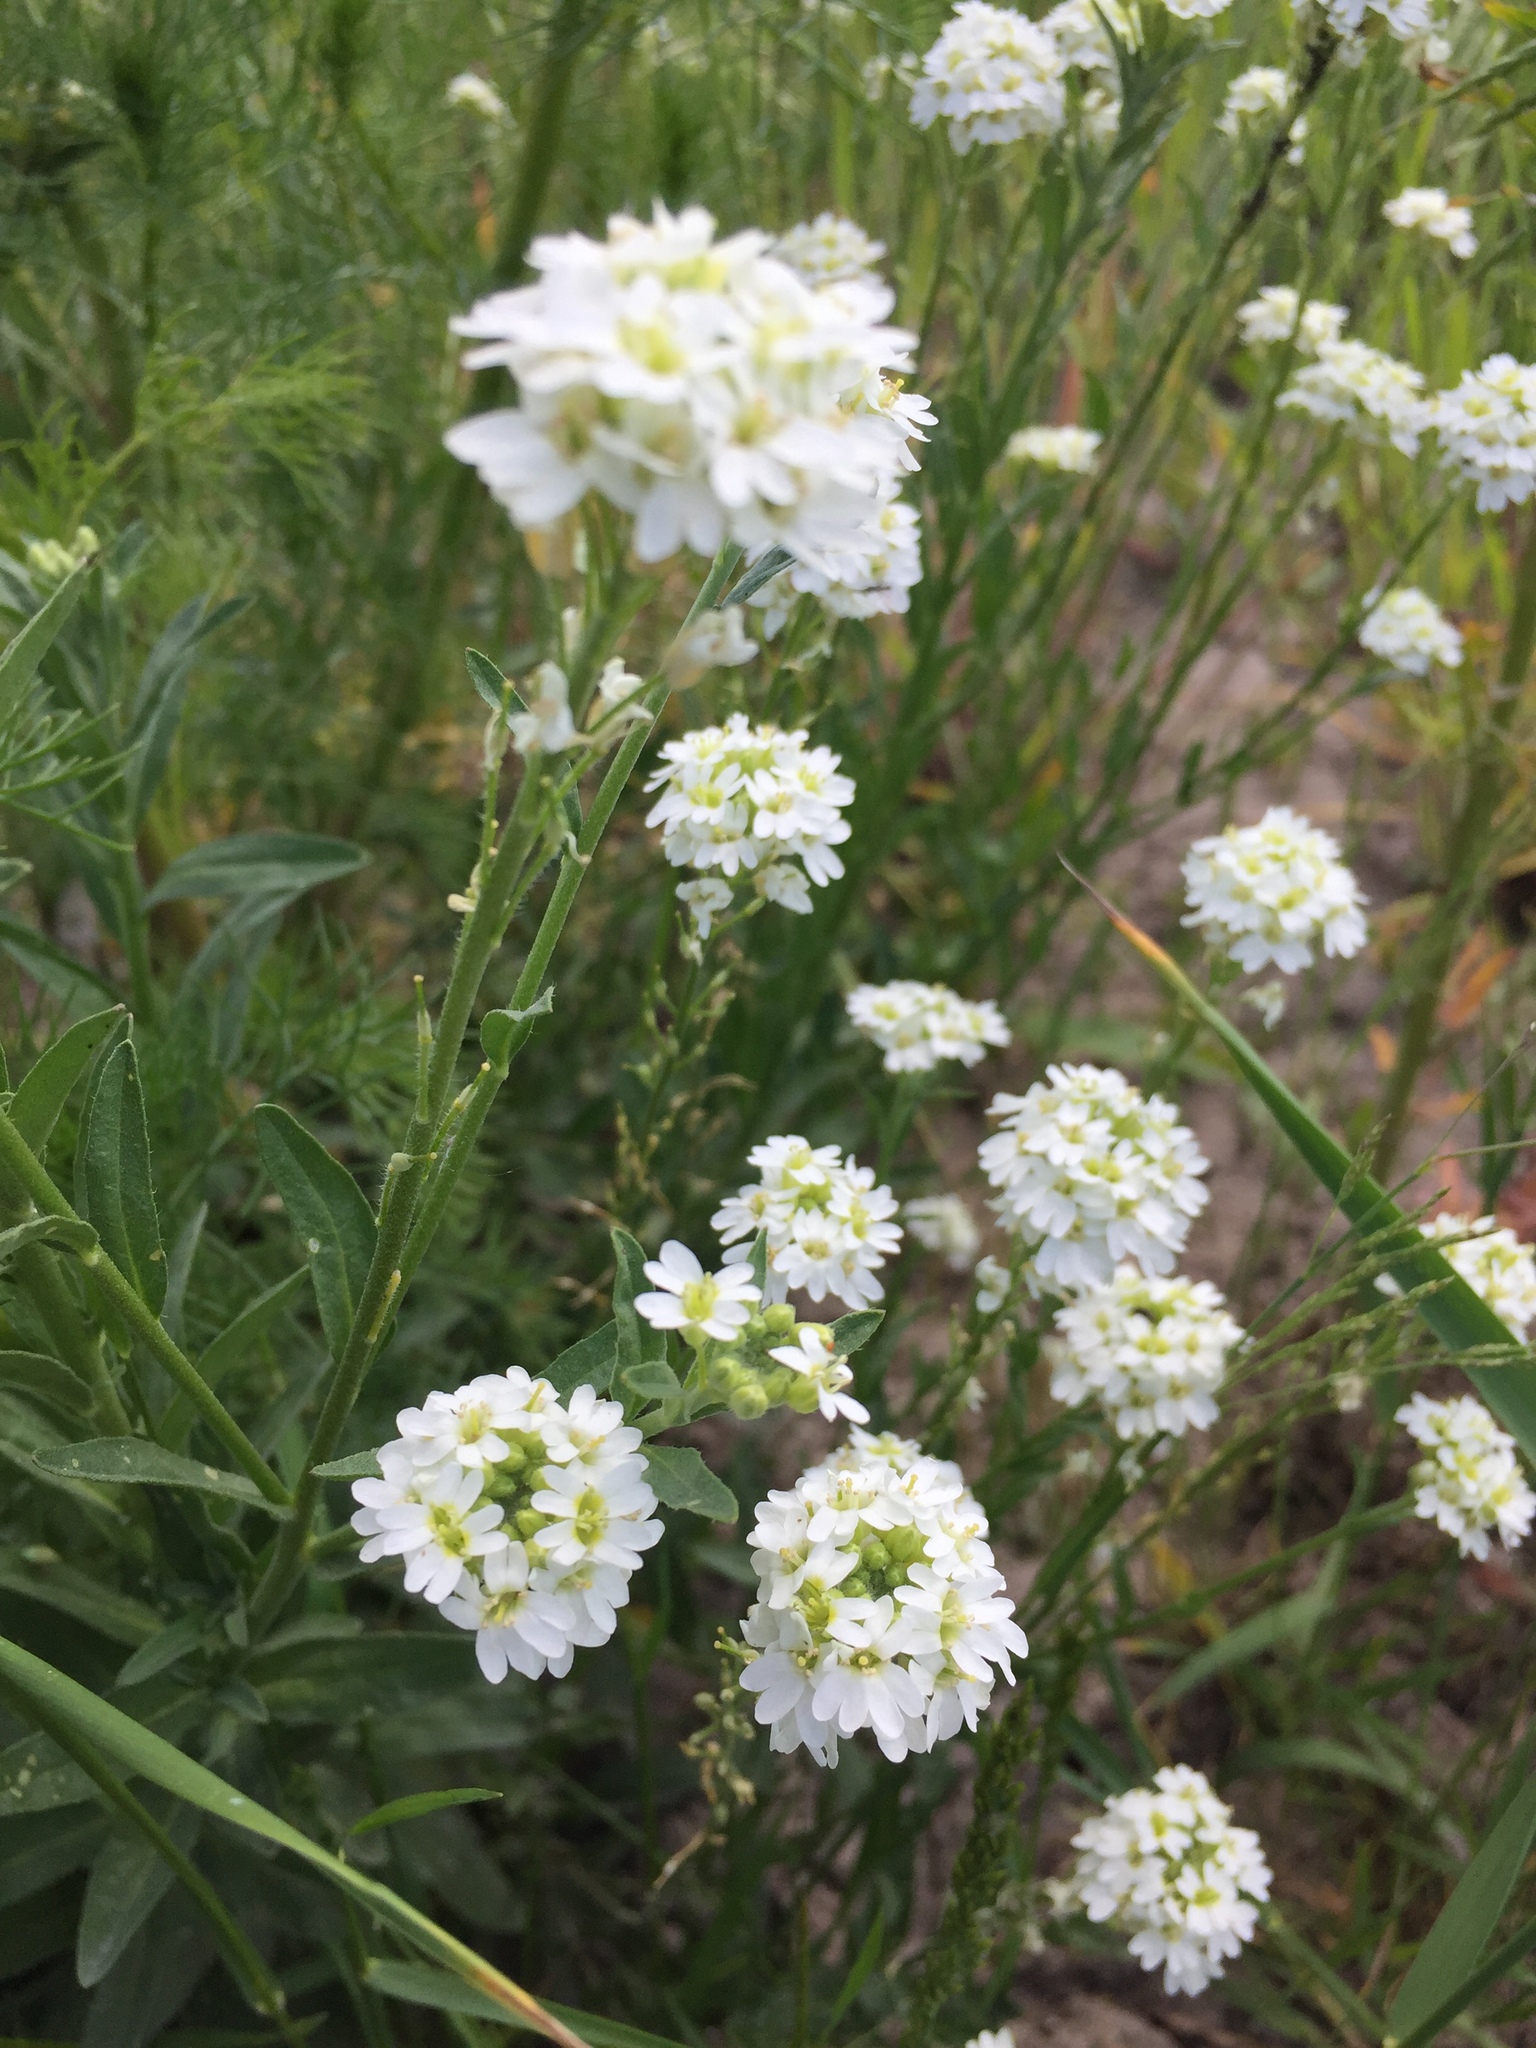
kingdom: Plantae
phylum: Tracheophyta
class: Magnoliopsida
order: Brassicales
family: Brassicaceae
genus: Berteroa
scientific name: Berteroa incana
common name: Hoary alison
